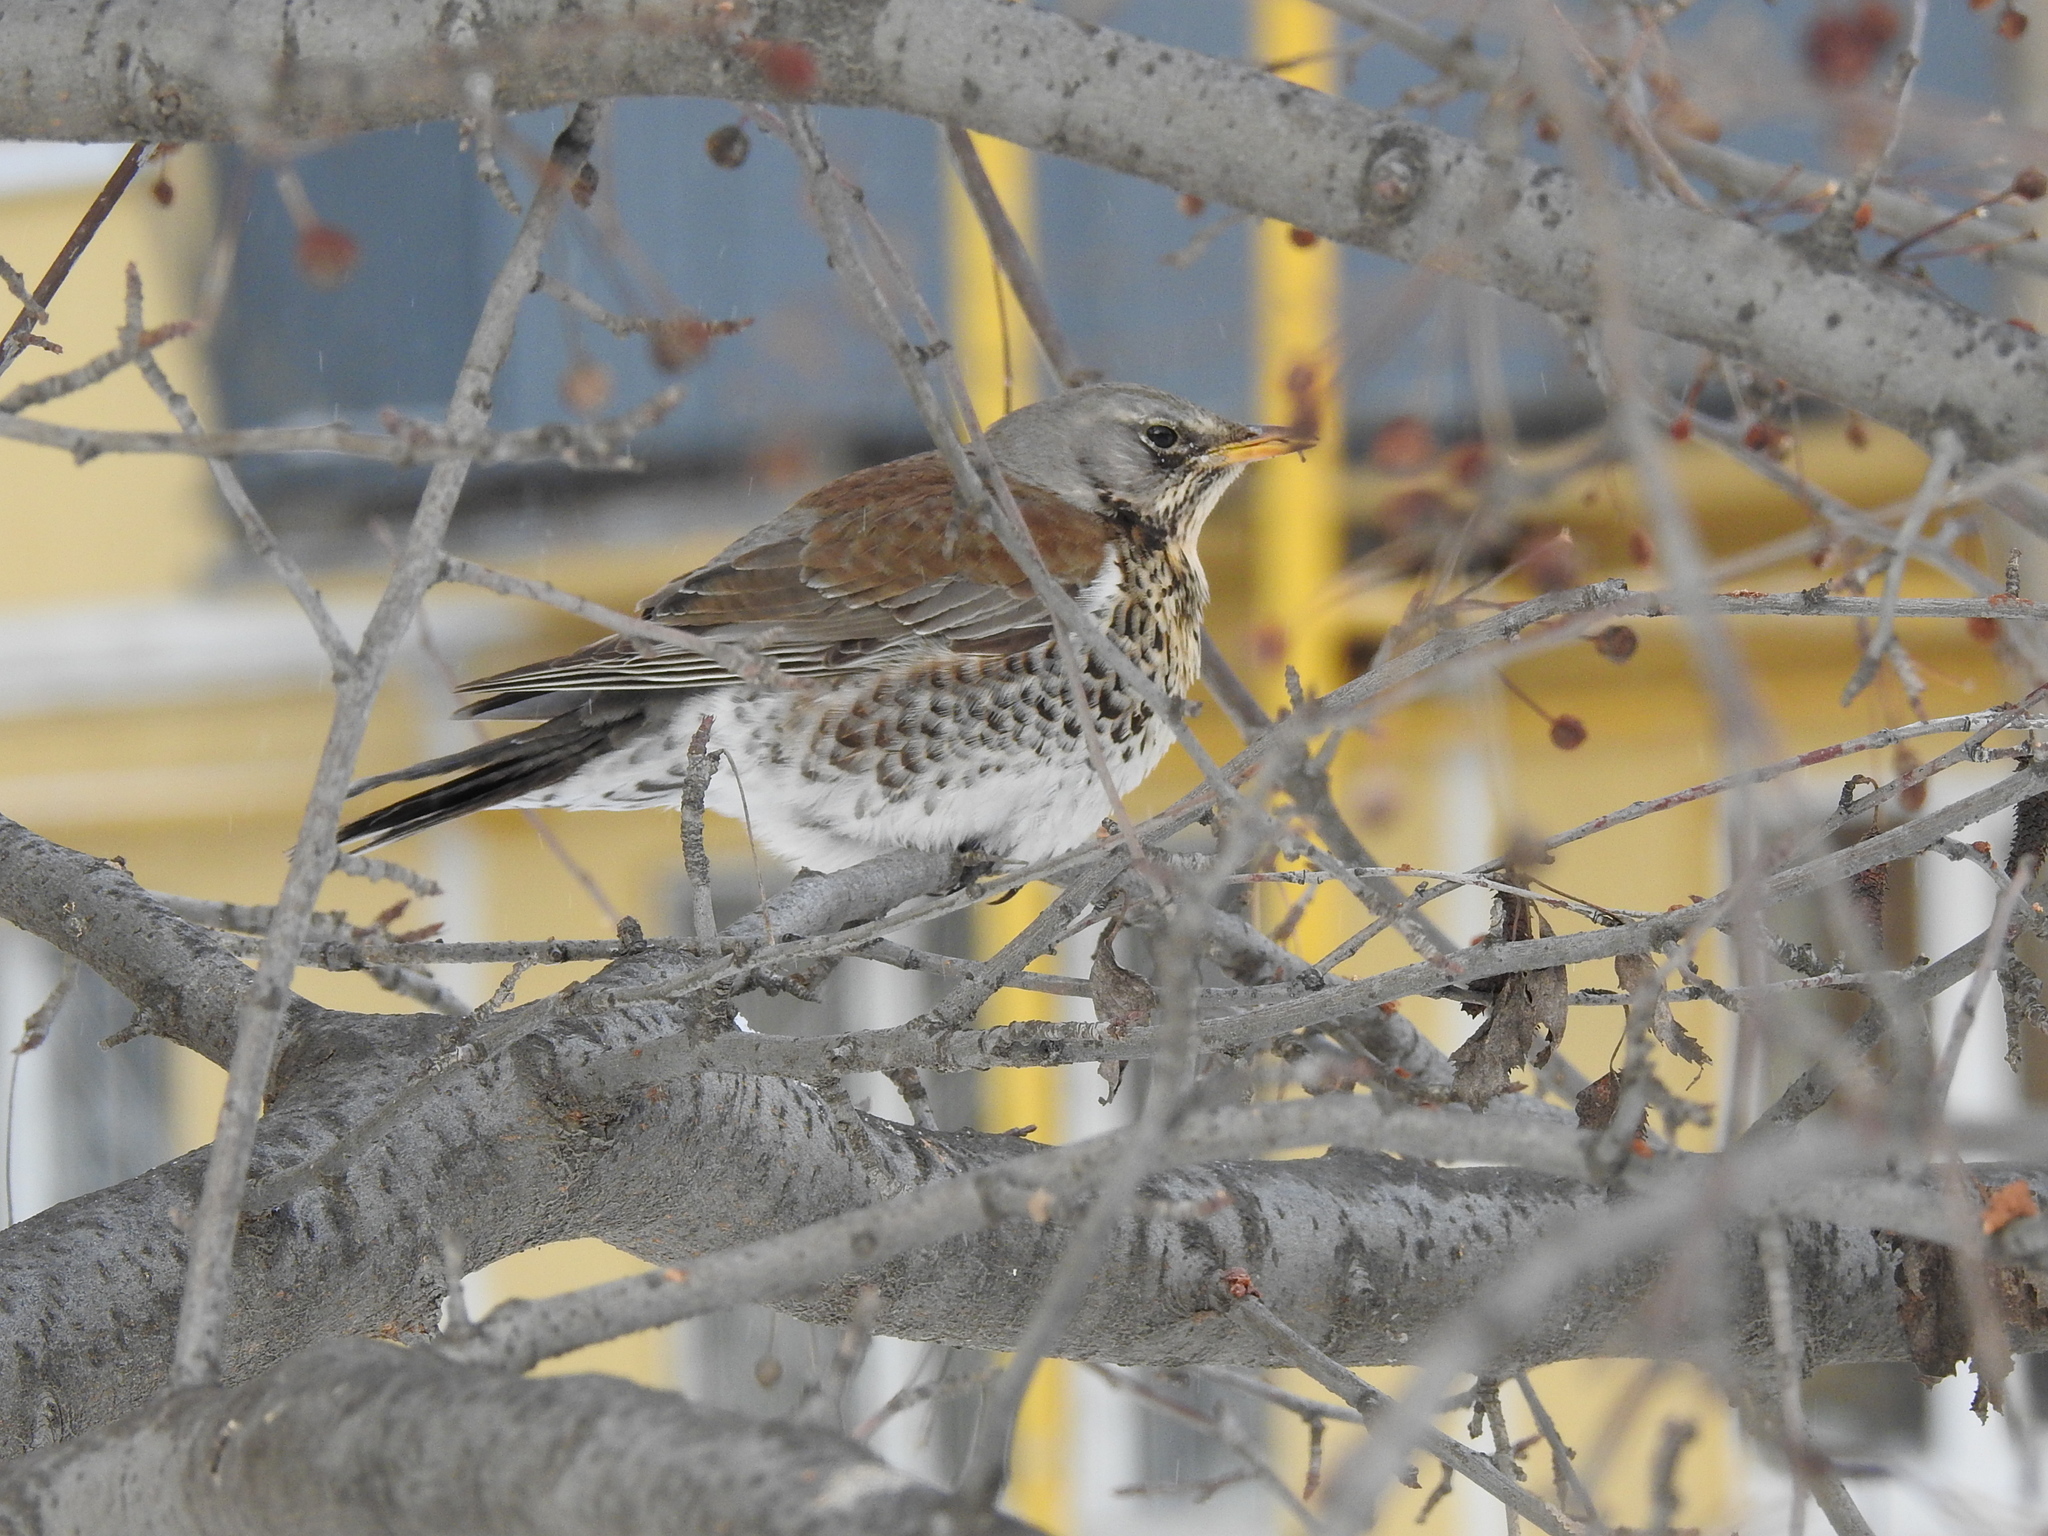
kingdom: Animalia
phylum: Chordata
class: Aves
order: Passeriformes
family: Turdidae
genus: Turdus
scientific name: Turdus pilaris
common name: Fieldfare
